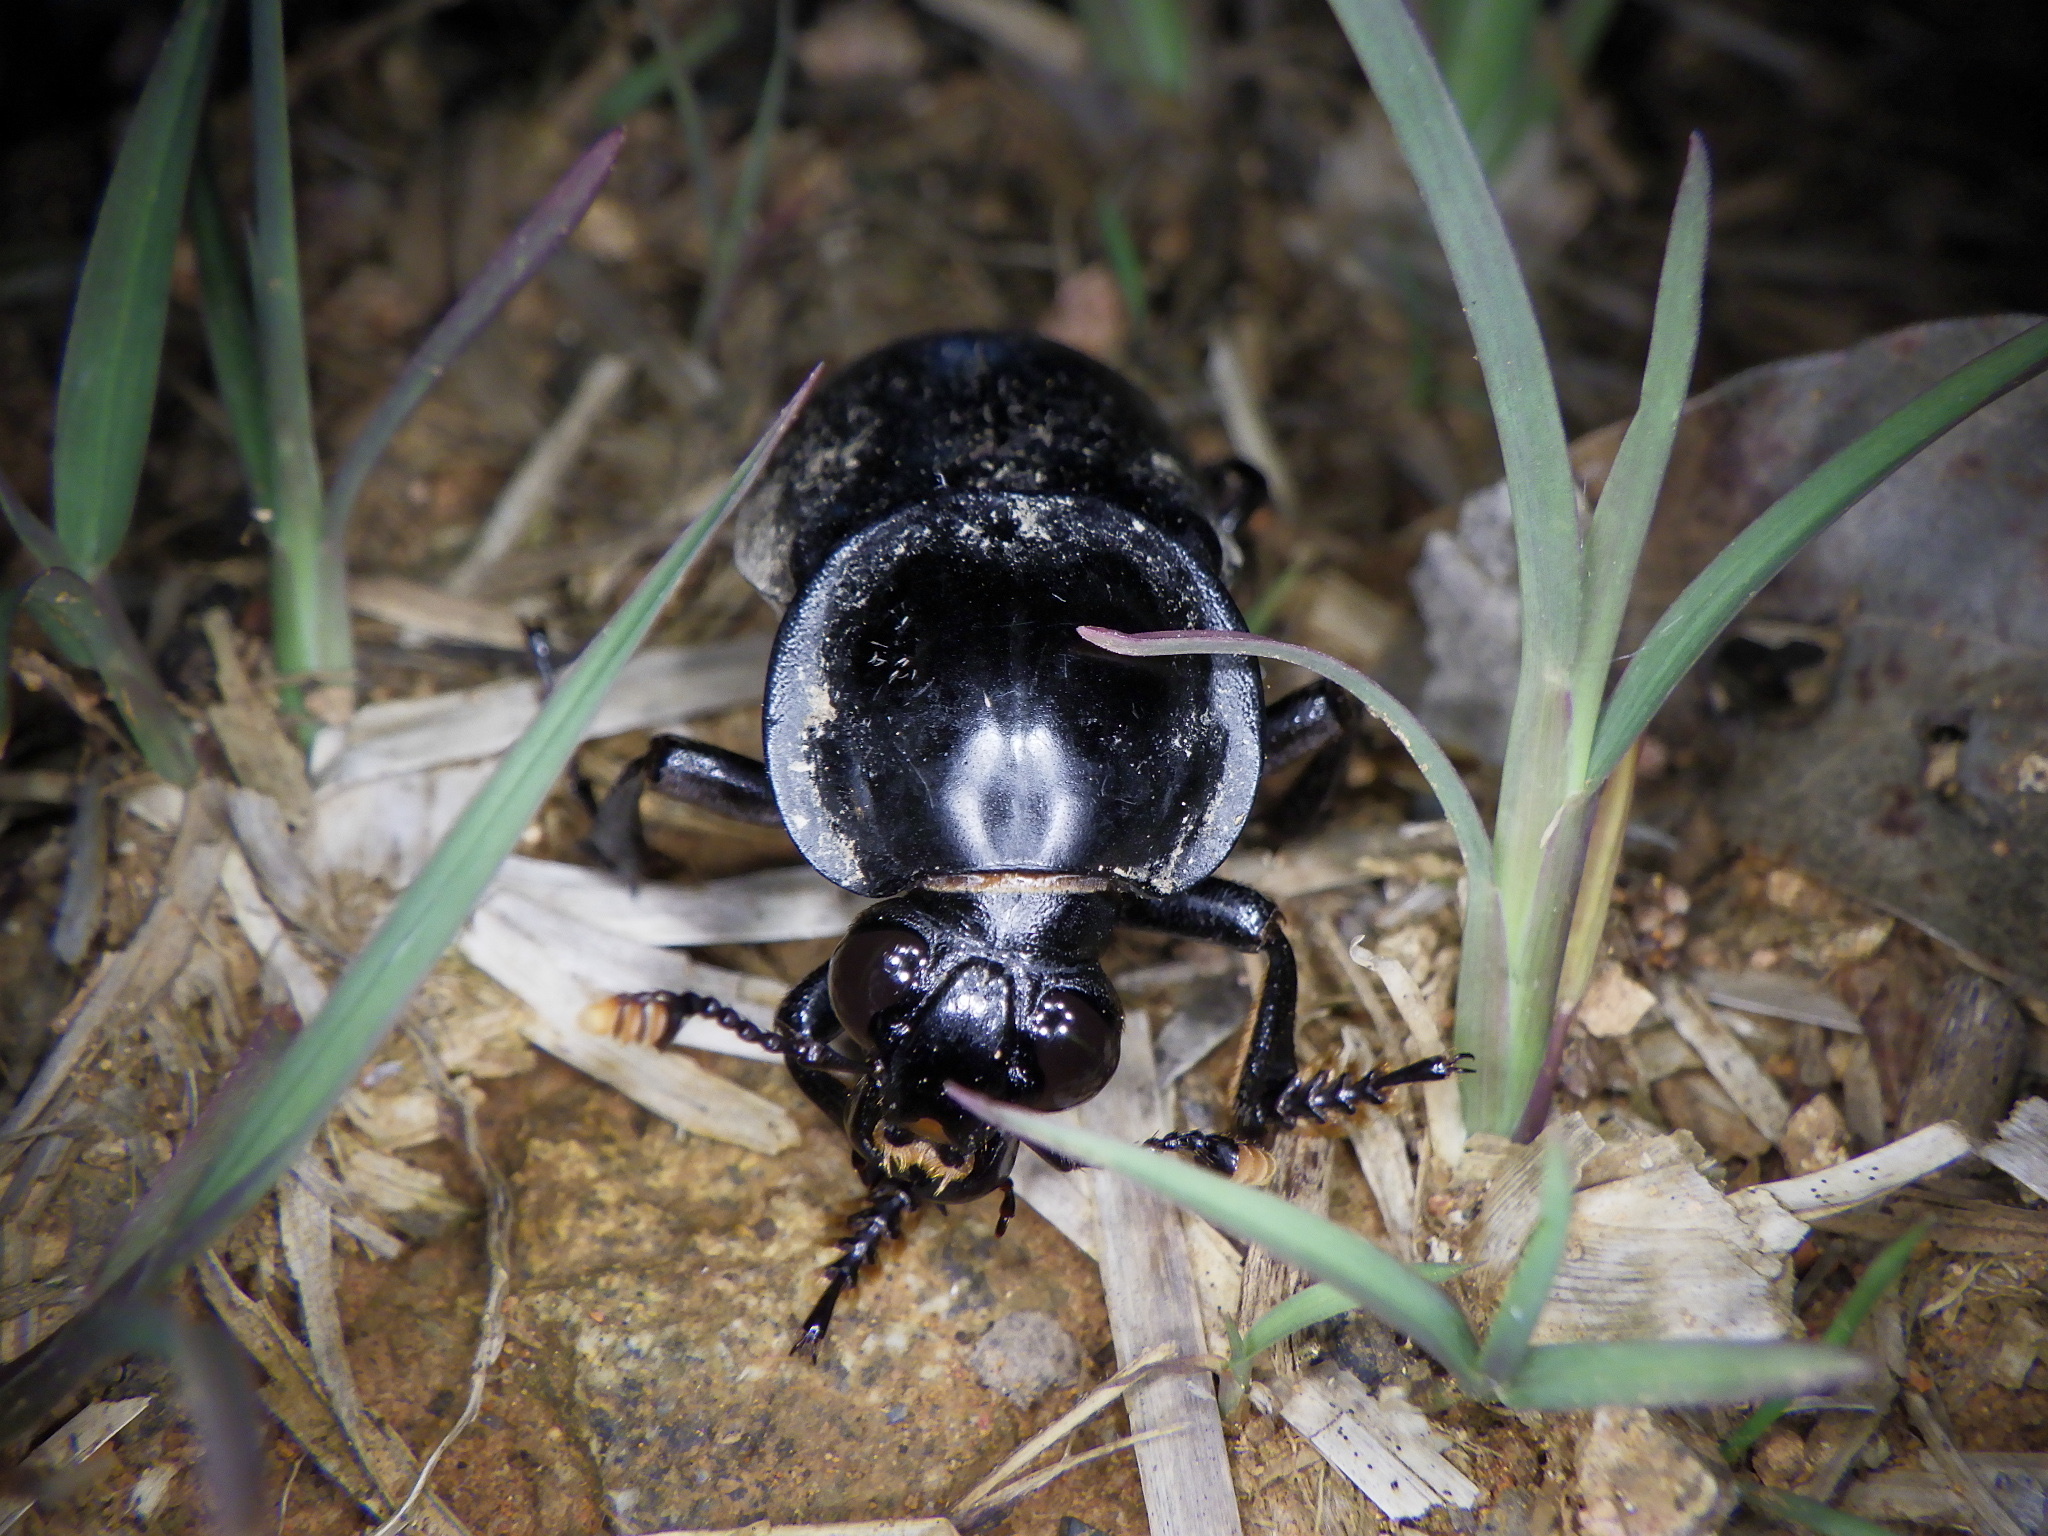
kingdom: Animalia
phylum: Arthropoda
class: Insecta
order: Coleoptera
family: Staphylinidae
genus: Nicrophorus
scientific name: Nicrophorus concolor
